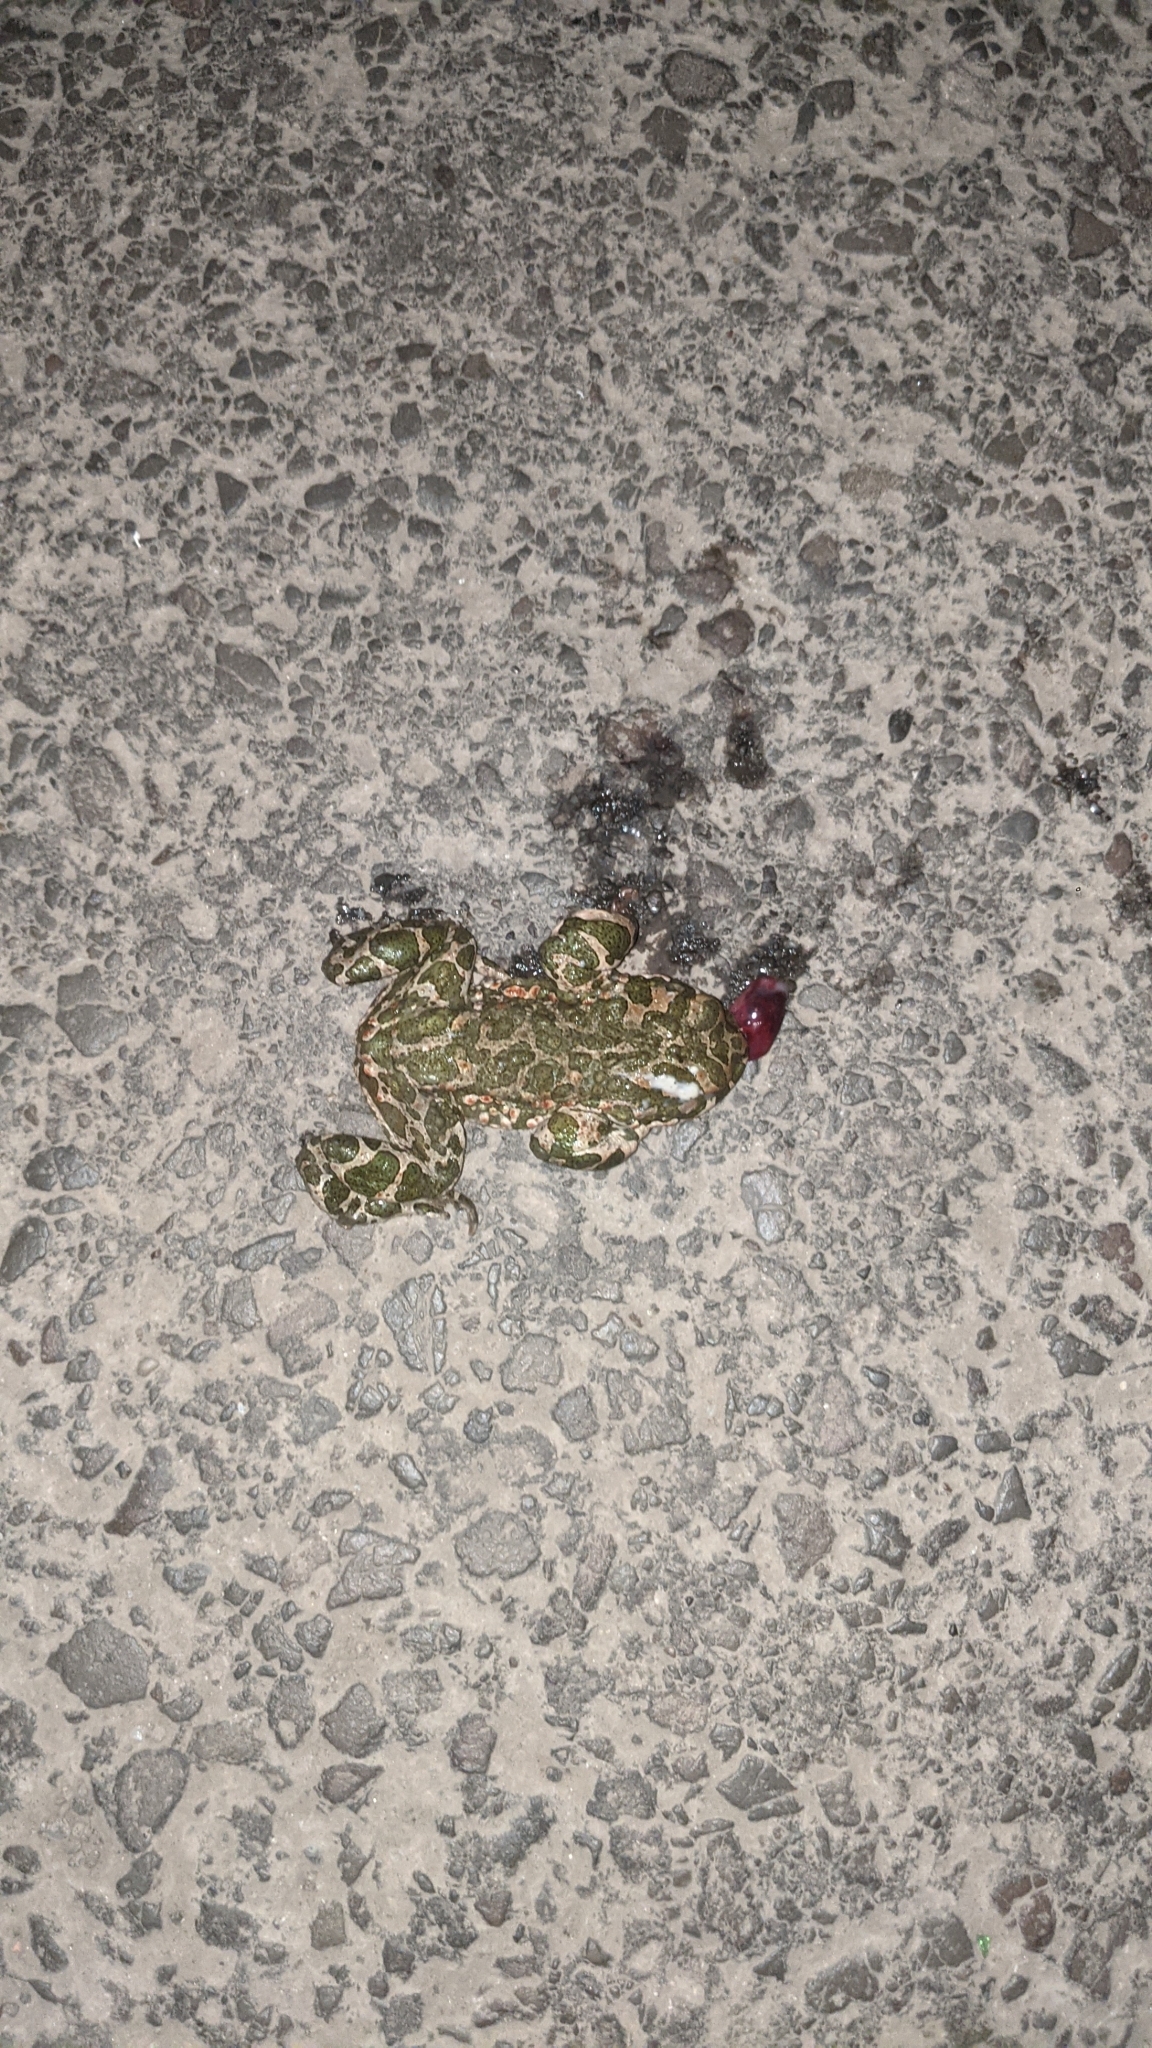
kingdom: Animalia
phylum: Chordata
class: Amphibia
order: Anura
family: Bufonidae
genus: Bufotes
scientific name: Bufotes viridis
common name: European green toad
